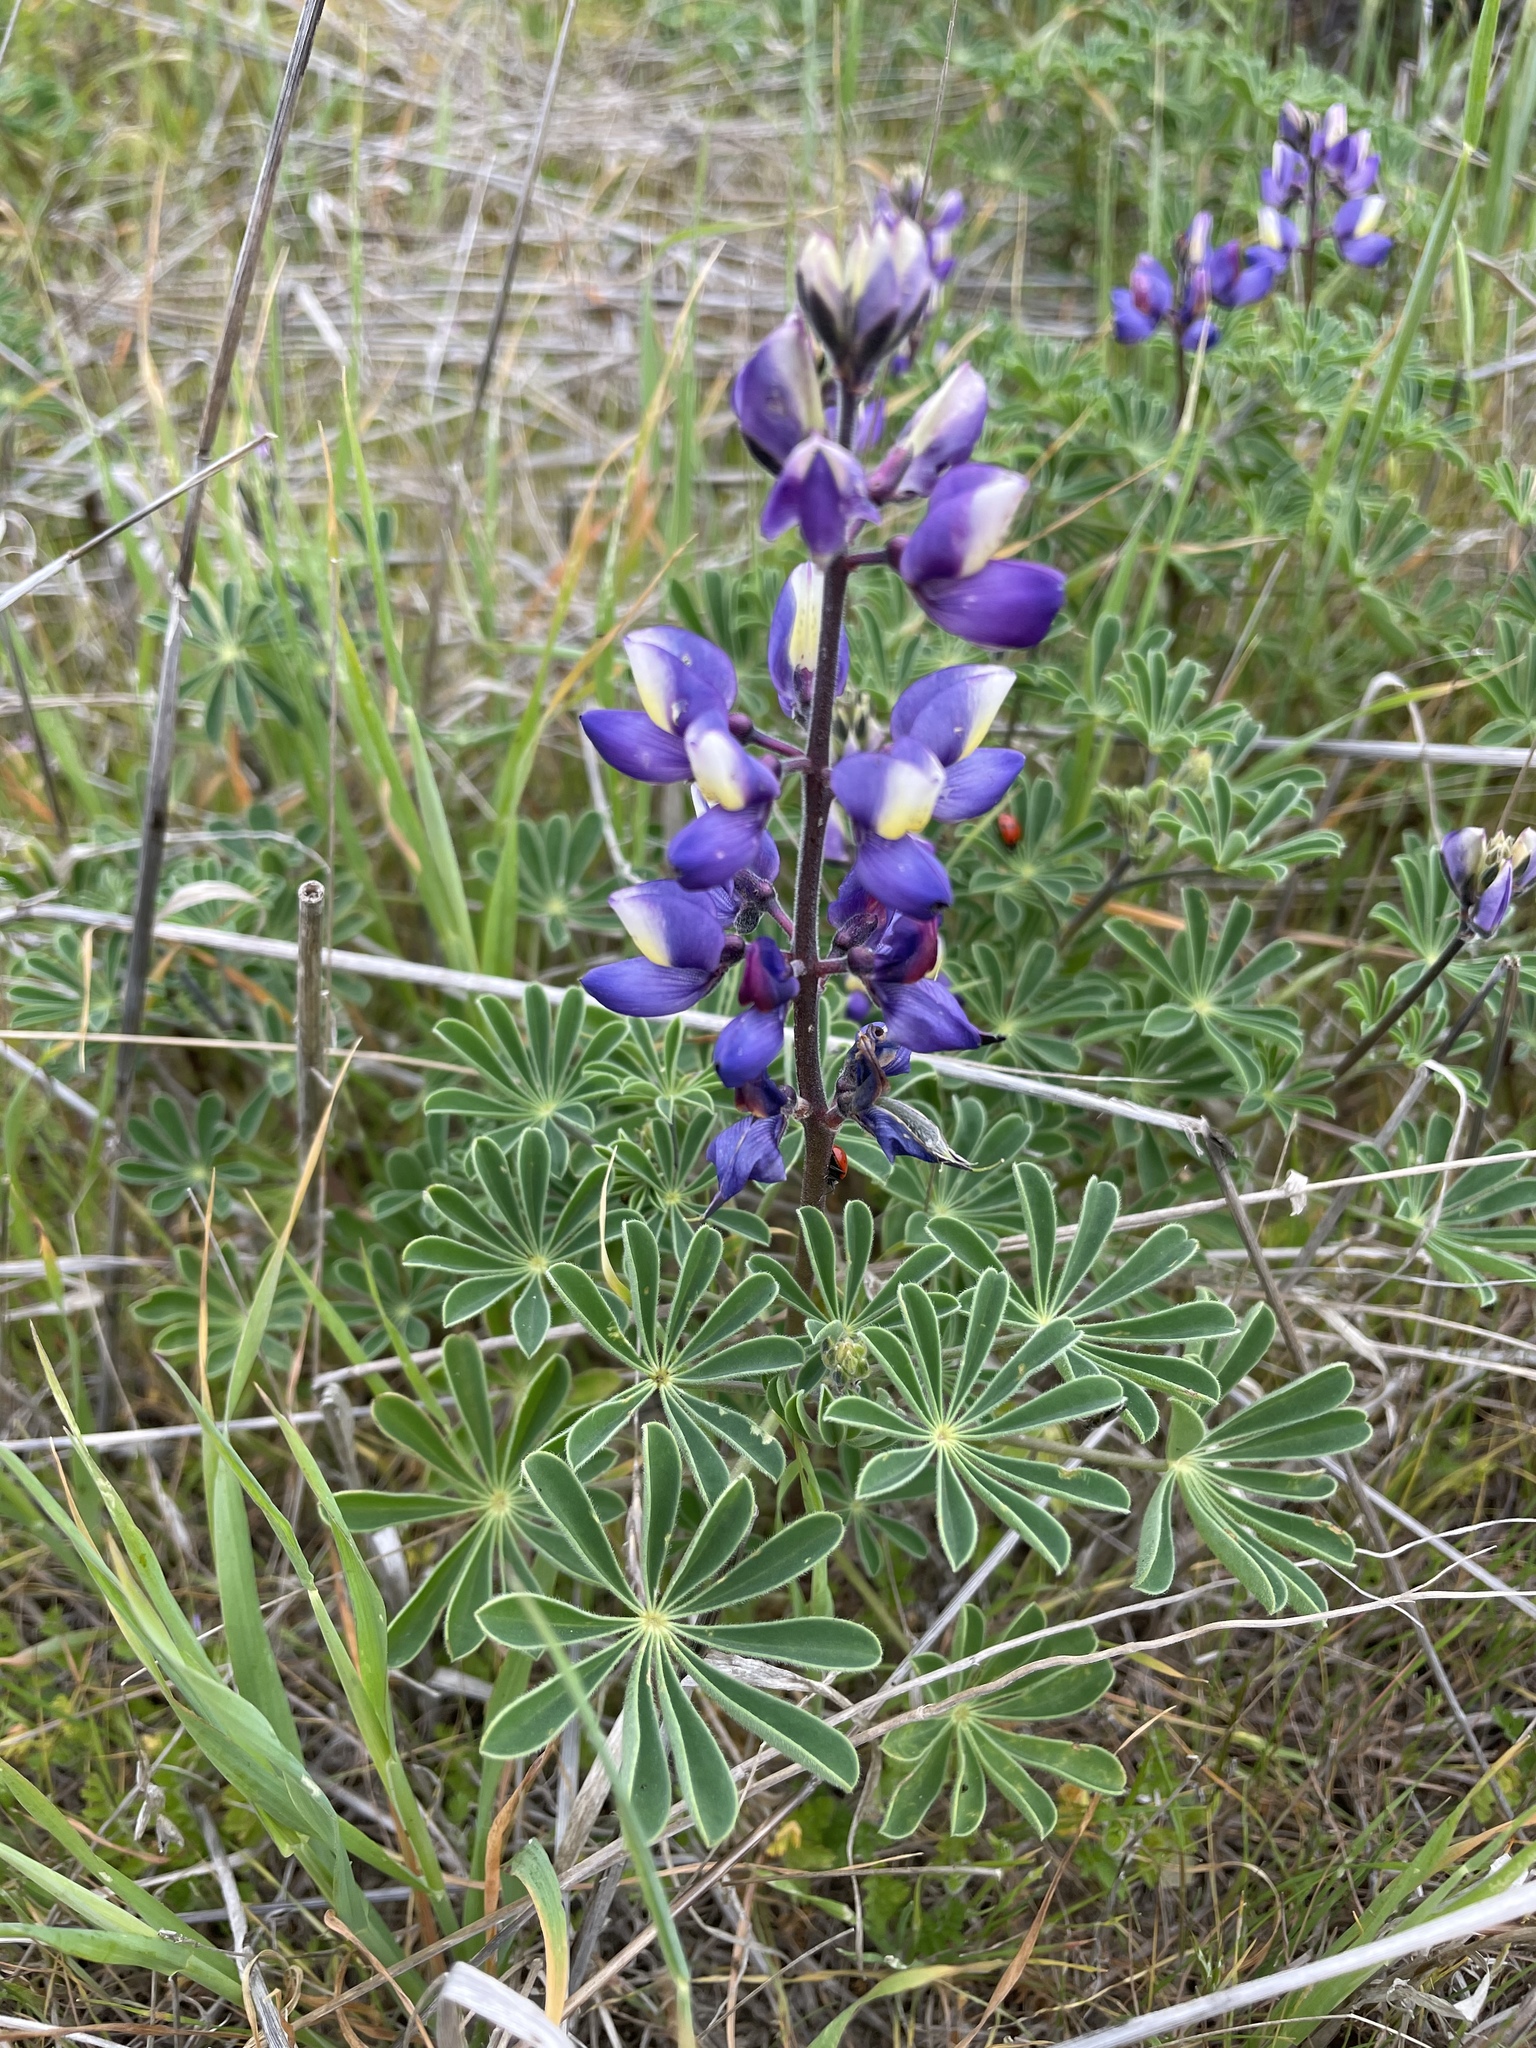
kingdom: Plantae
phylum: Tracheophyta
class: Magnoliopsida
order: Fabales
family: Fabaceae
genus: Lupinus
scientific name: Lupinus succulentus
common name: Arroyo lupine
